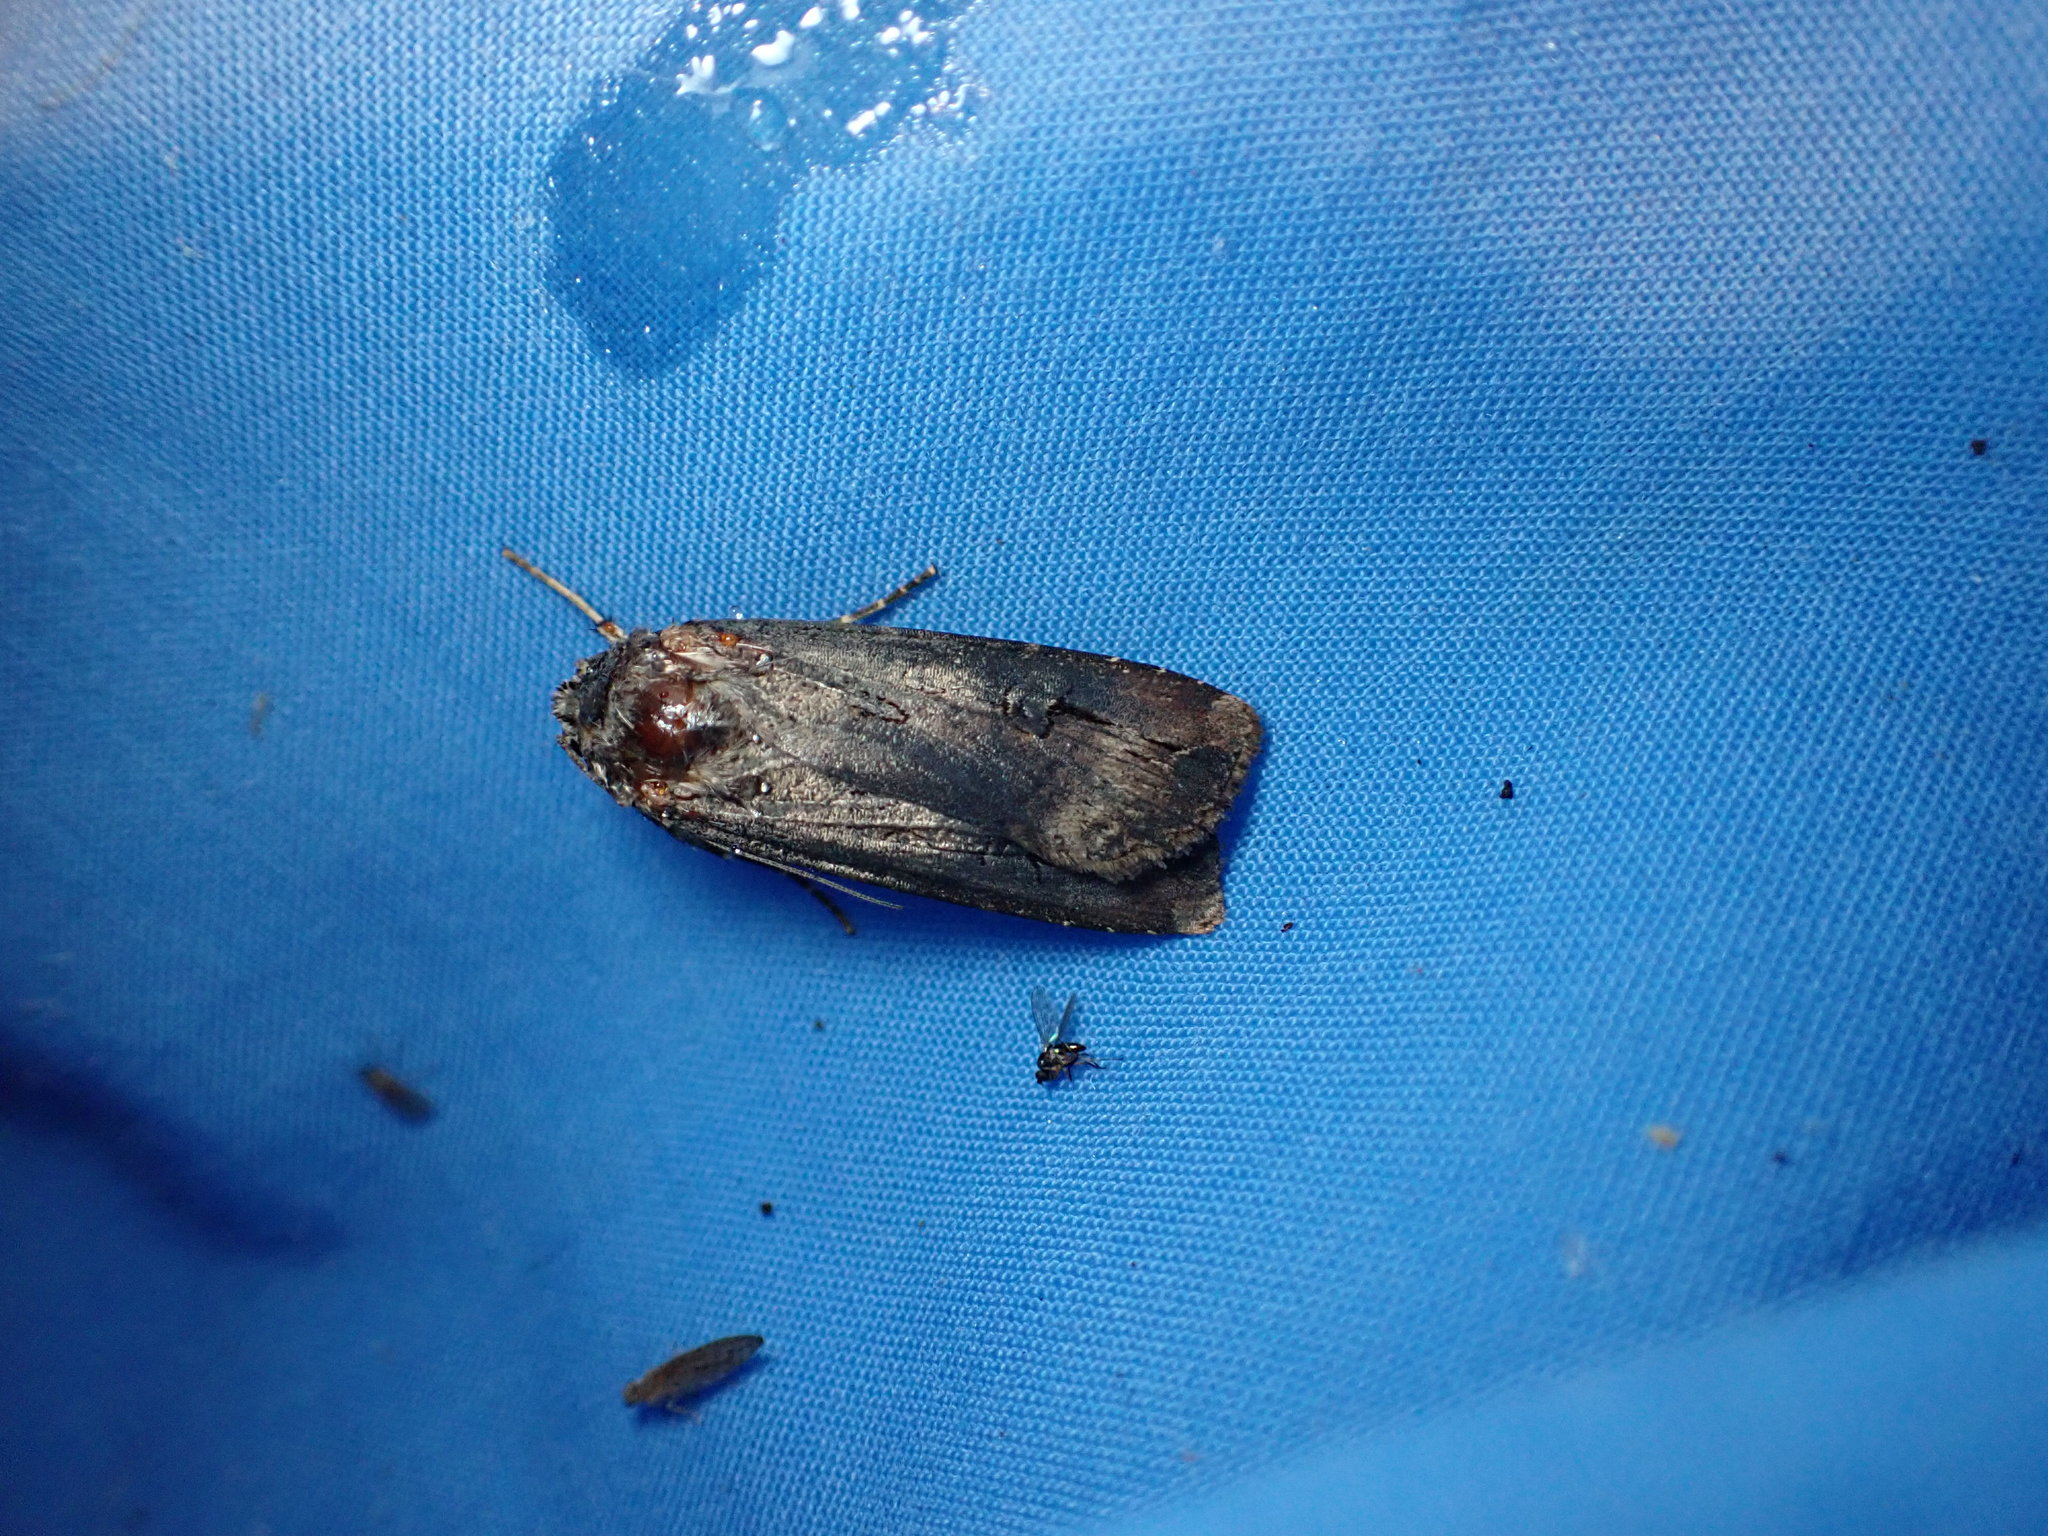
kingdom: Animalia
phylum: Arthropoda
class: Insecta
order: Lepidoptera
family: Noctuidae
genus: Agrotis
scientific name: Agrotis ipsilon
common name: Dark sword-grass
